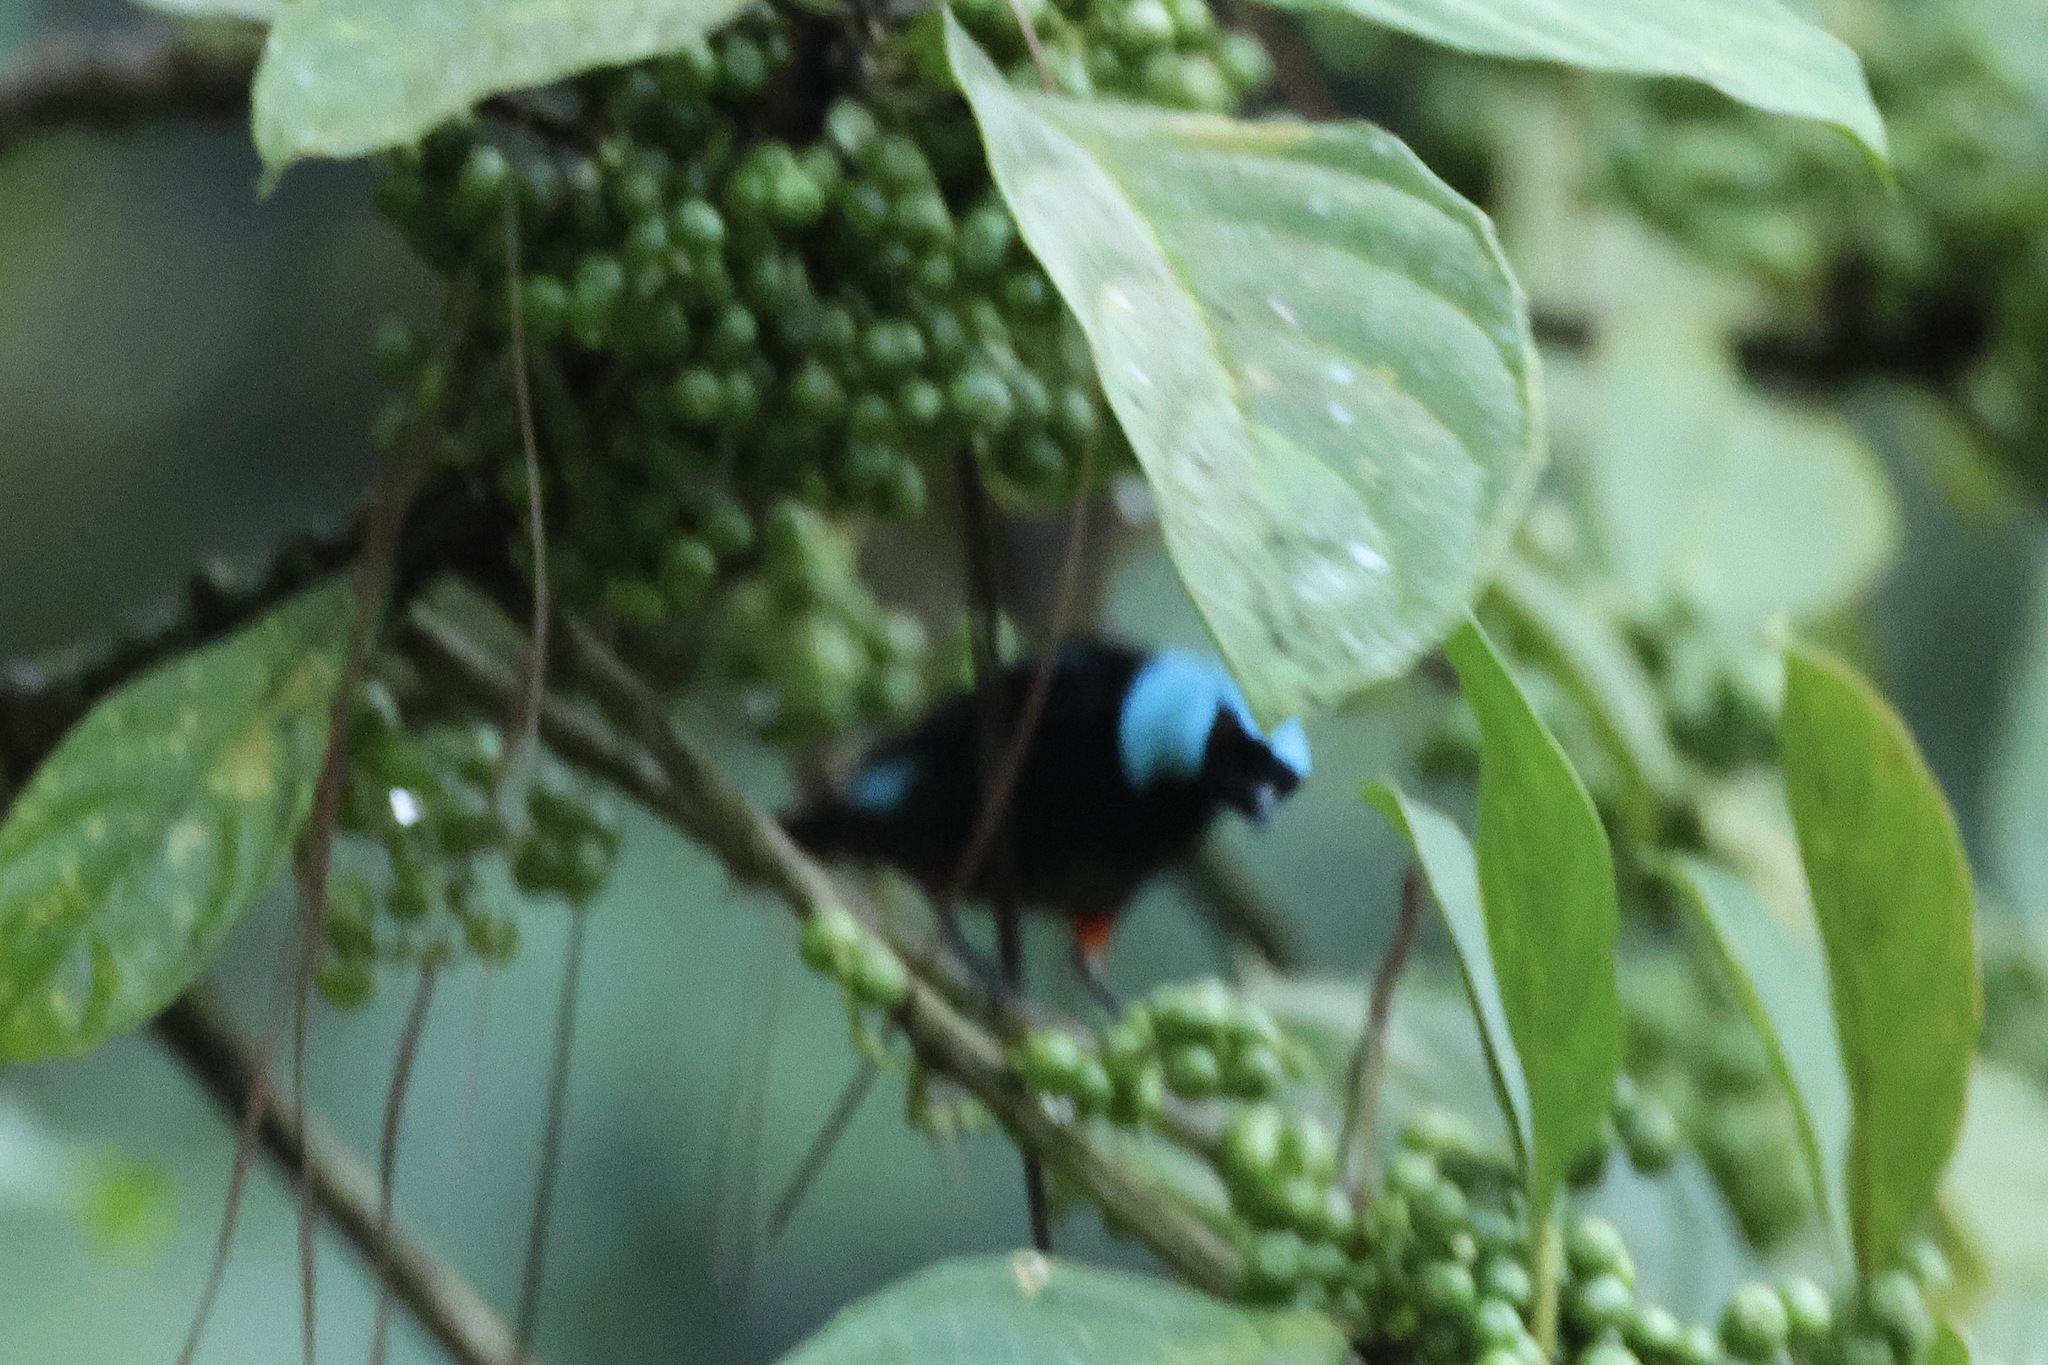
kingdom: Animalia
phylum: Chordata
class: Aves
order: Passeriformes
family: Thraupidae
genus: Dacnis
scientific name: Dacnis venusta
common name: Scarlet-thighed dacnis
